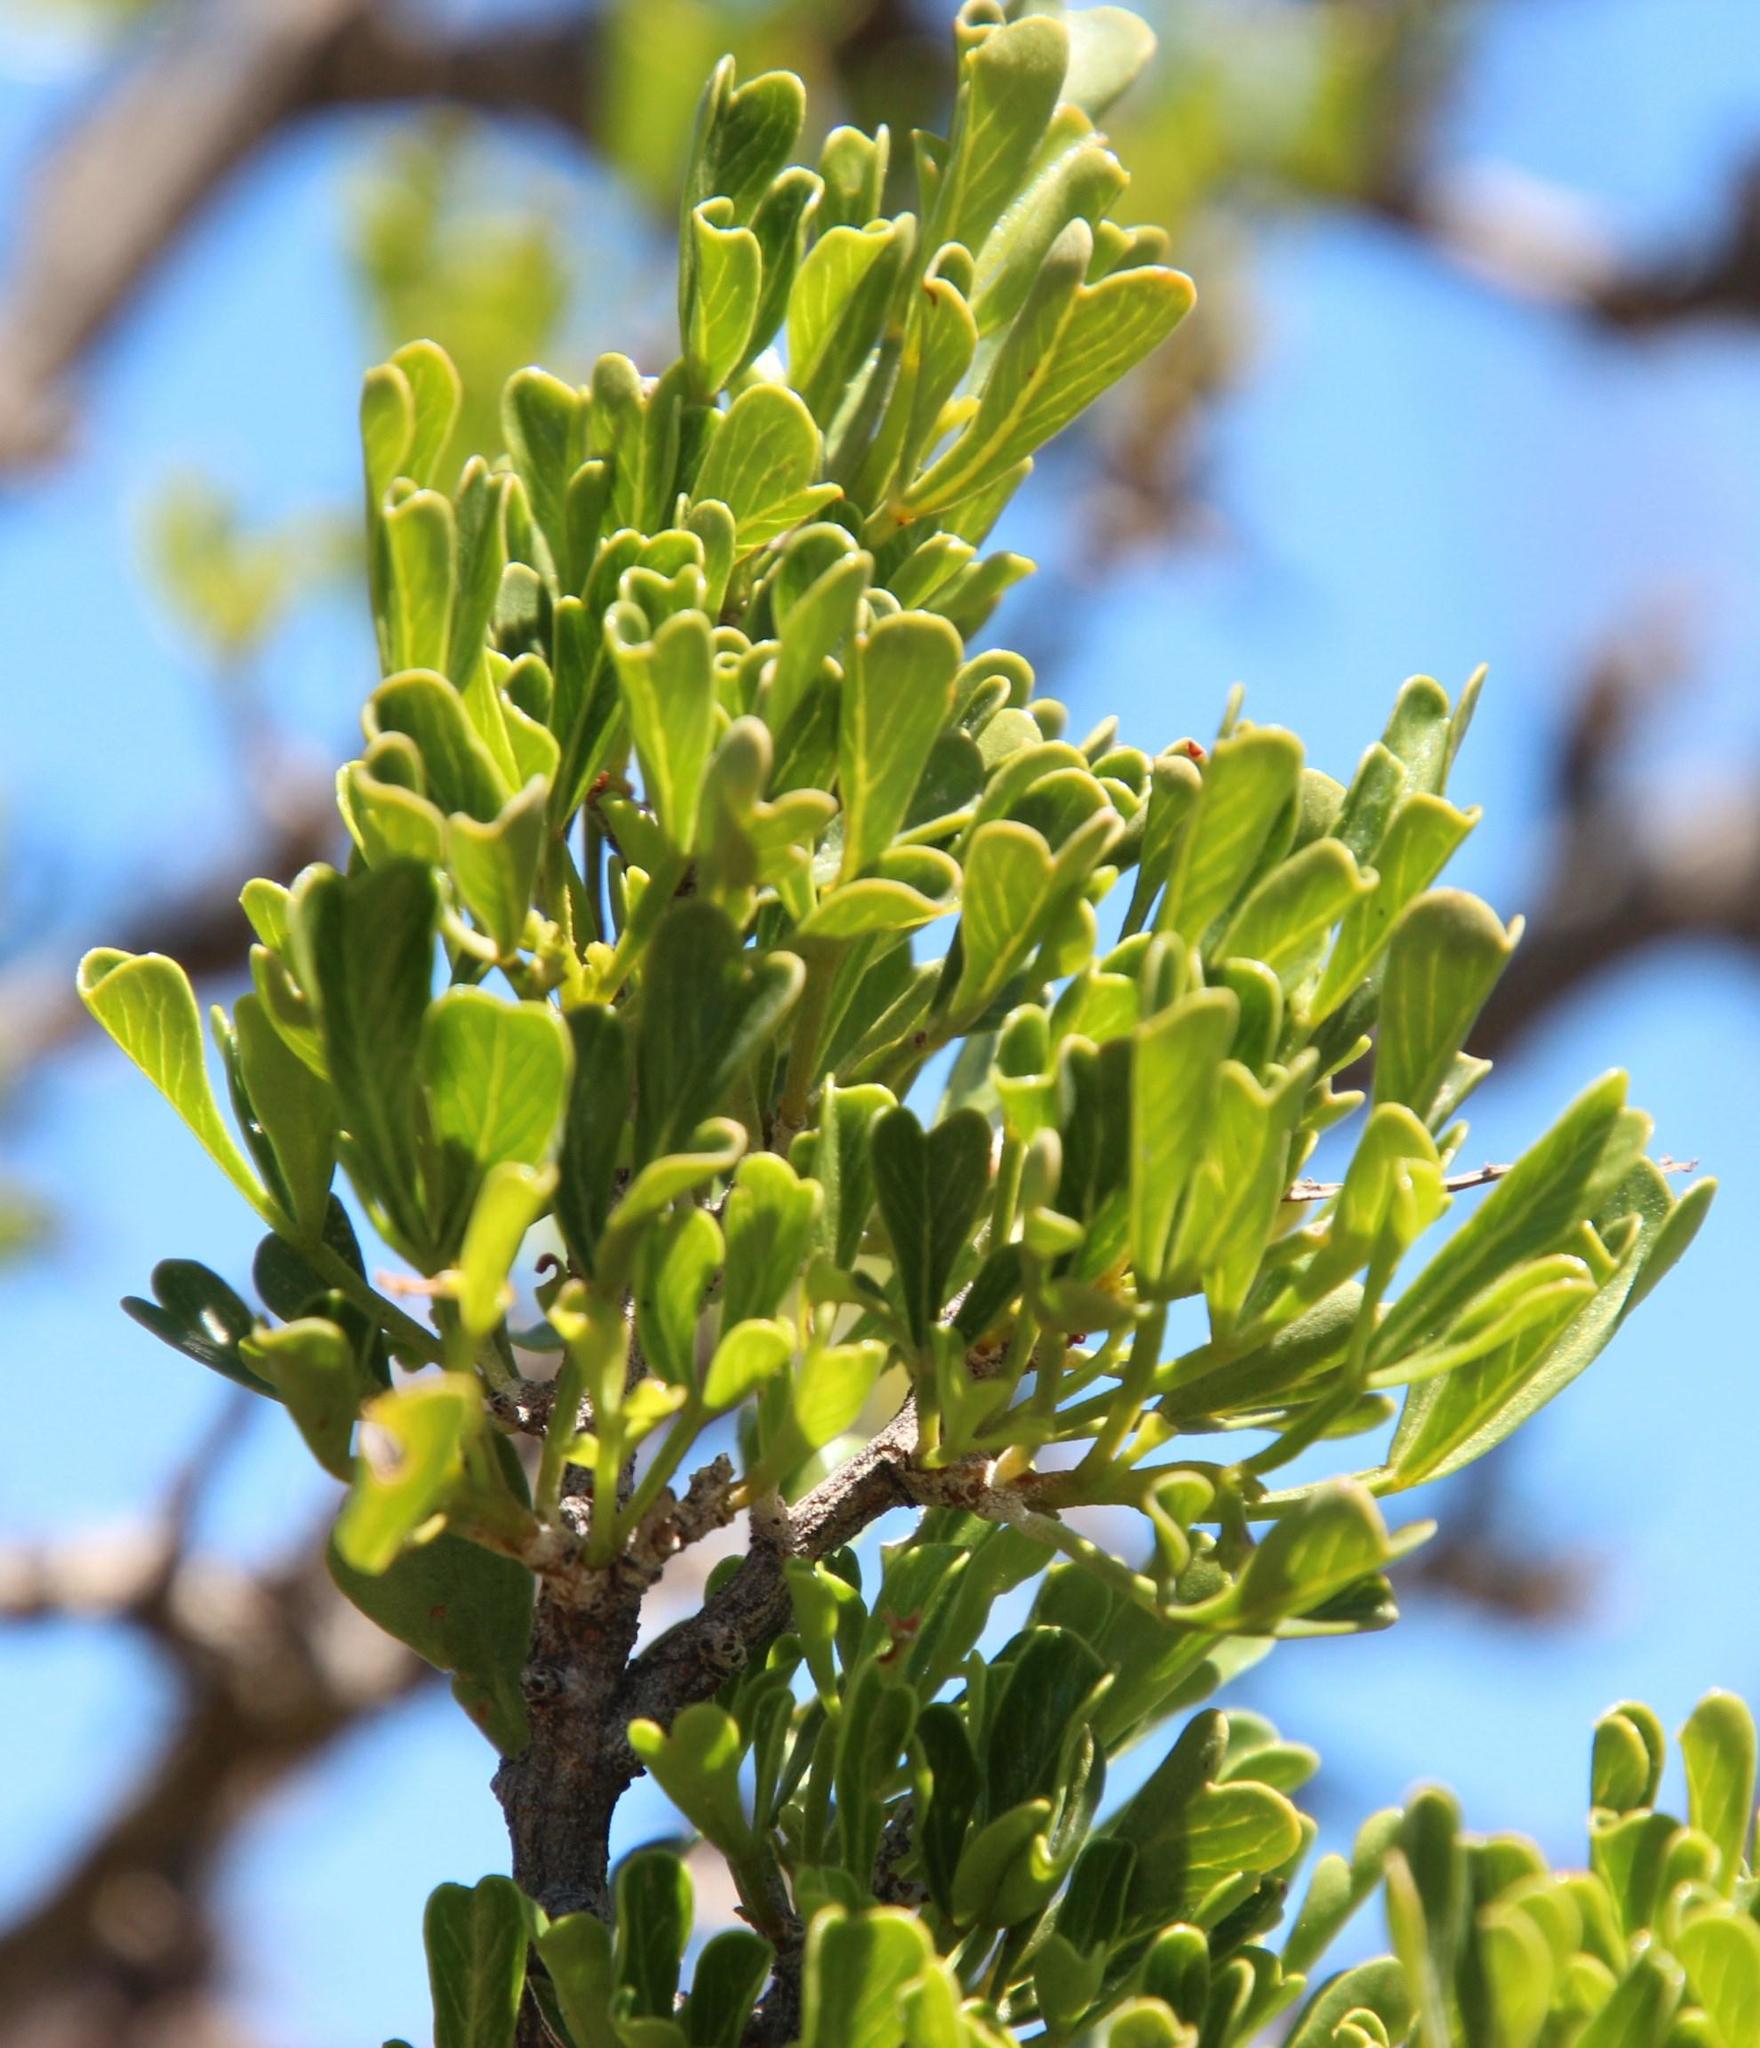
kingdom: Plantae
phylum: Tracheophyta
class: Magnoliopsida
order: Sapindales
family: Anacardiaceae
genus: Searsia
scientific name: Searsia burchellii
